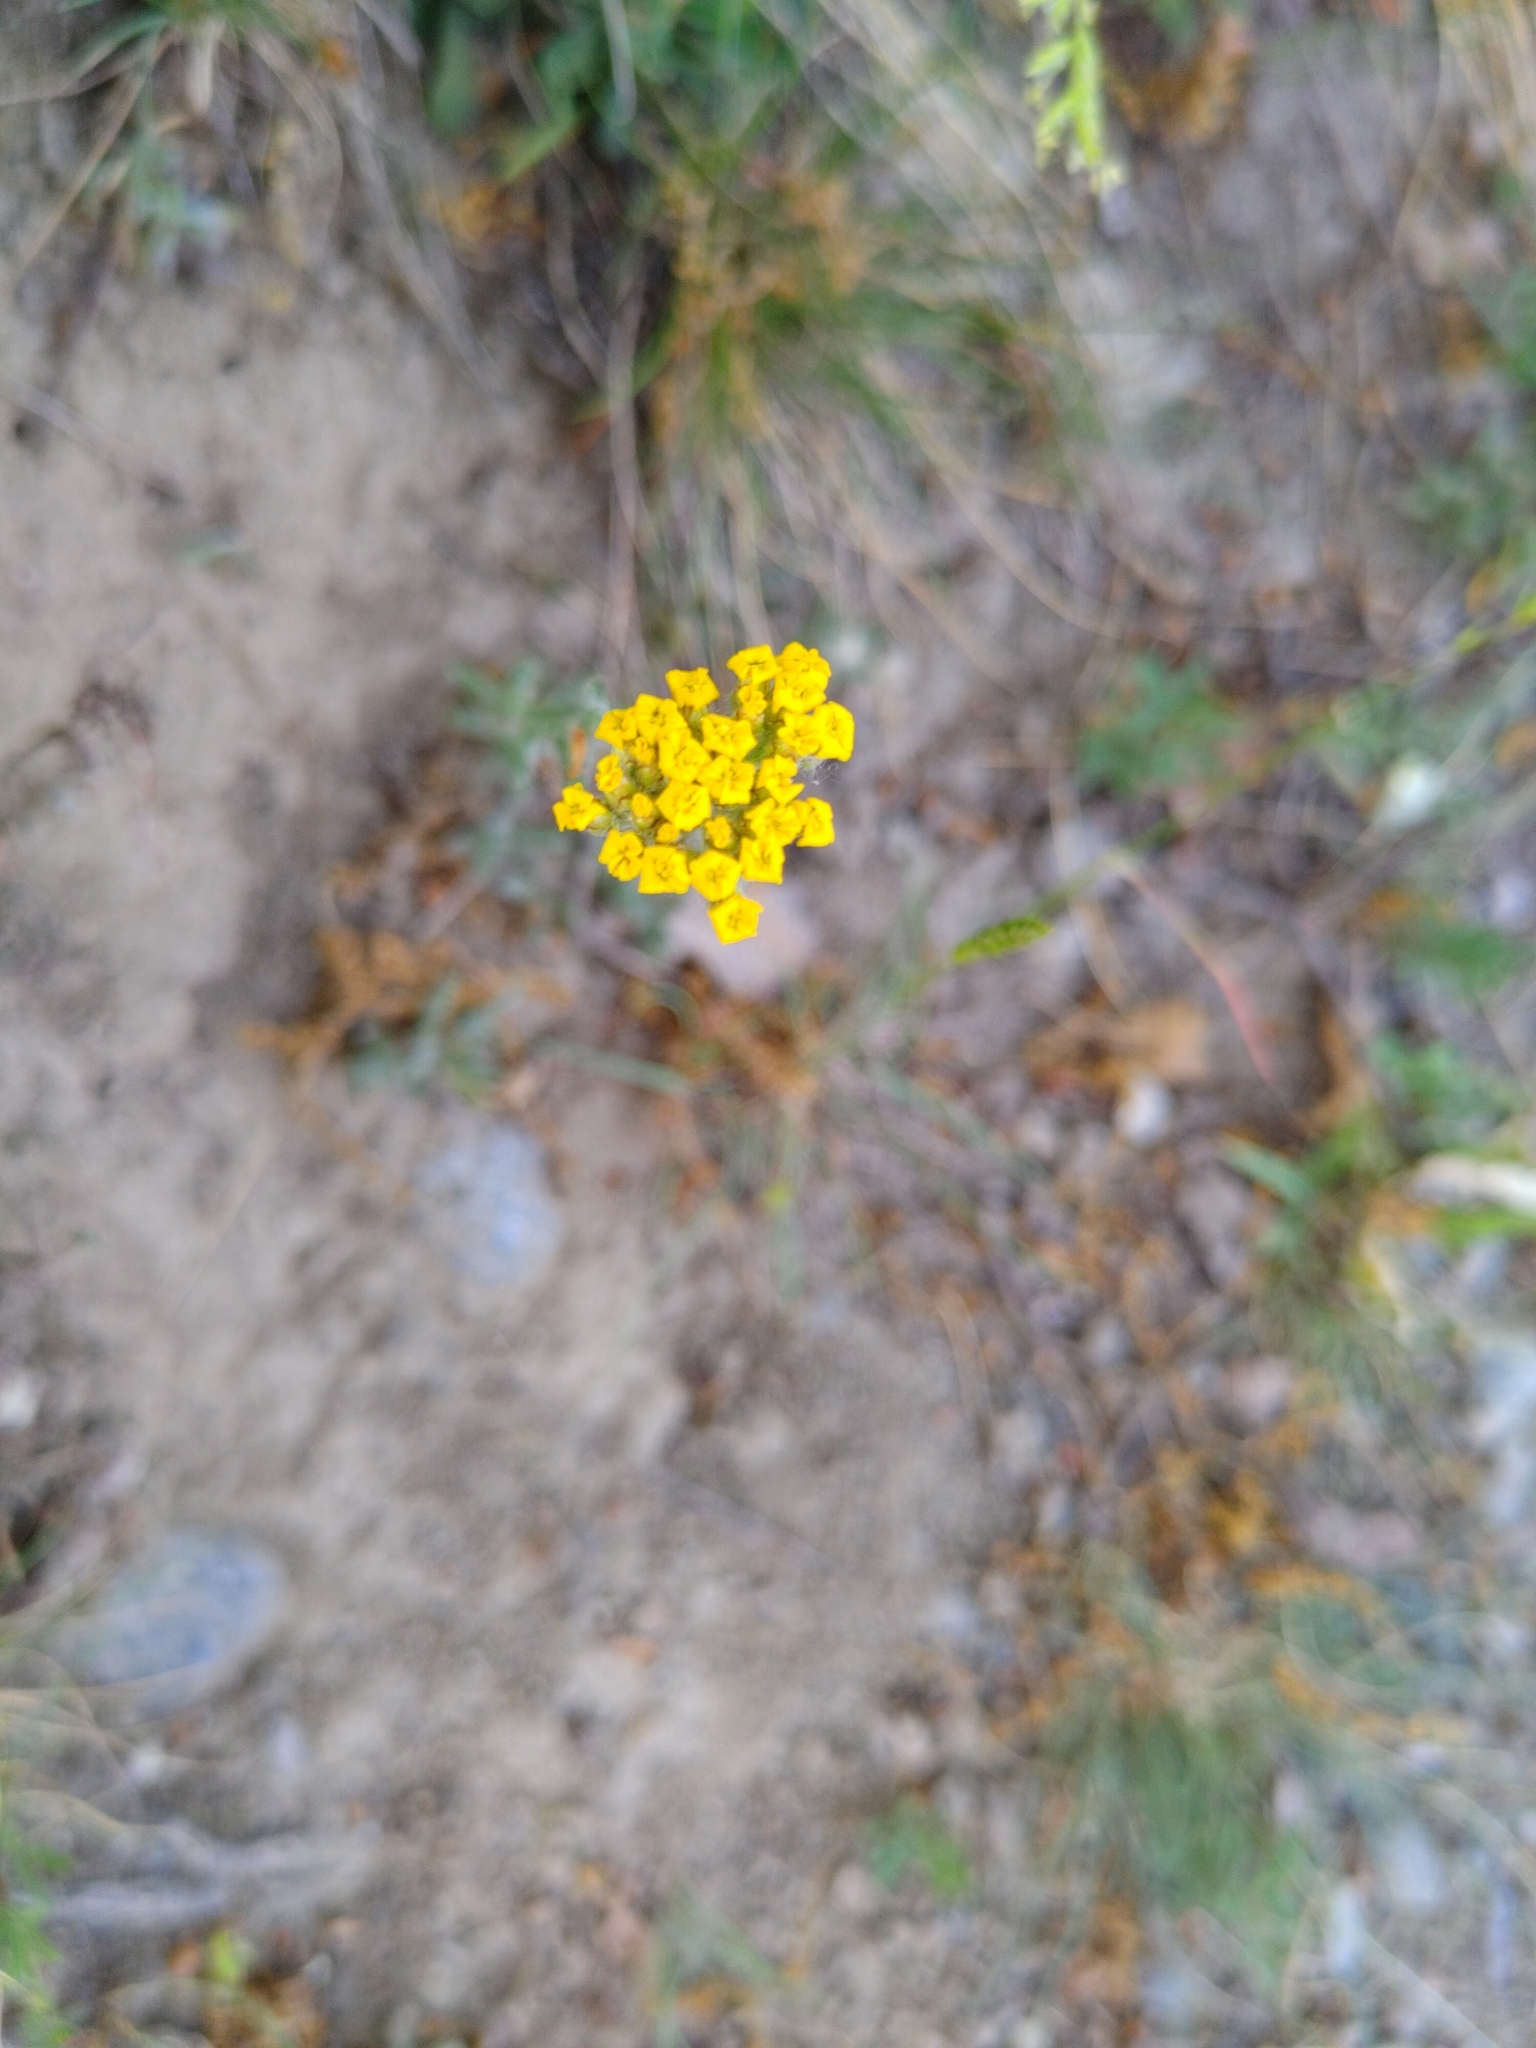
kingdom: Plantae
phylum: Tracheophyta
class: Magnoliopsida
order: Asterales
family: Asteraceae
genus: Achillea
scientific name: Achillea tomentosa
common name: Yellow milfoil
